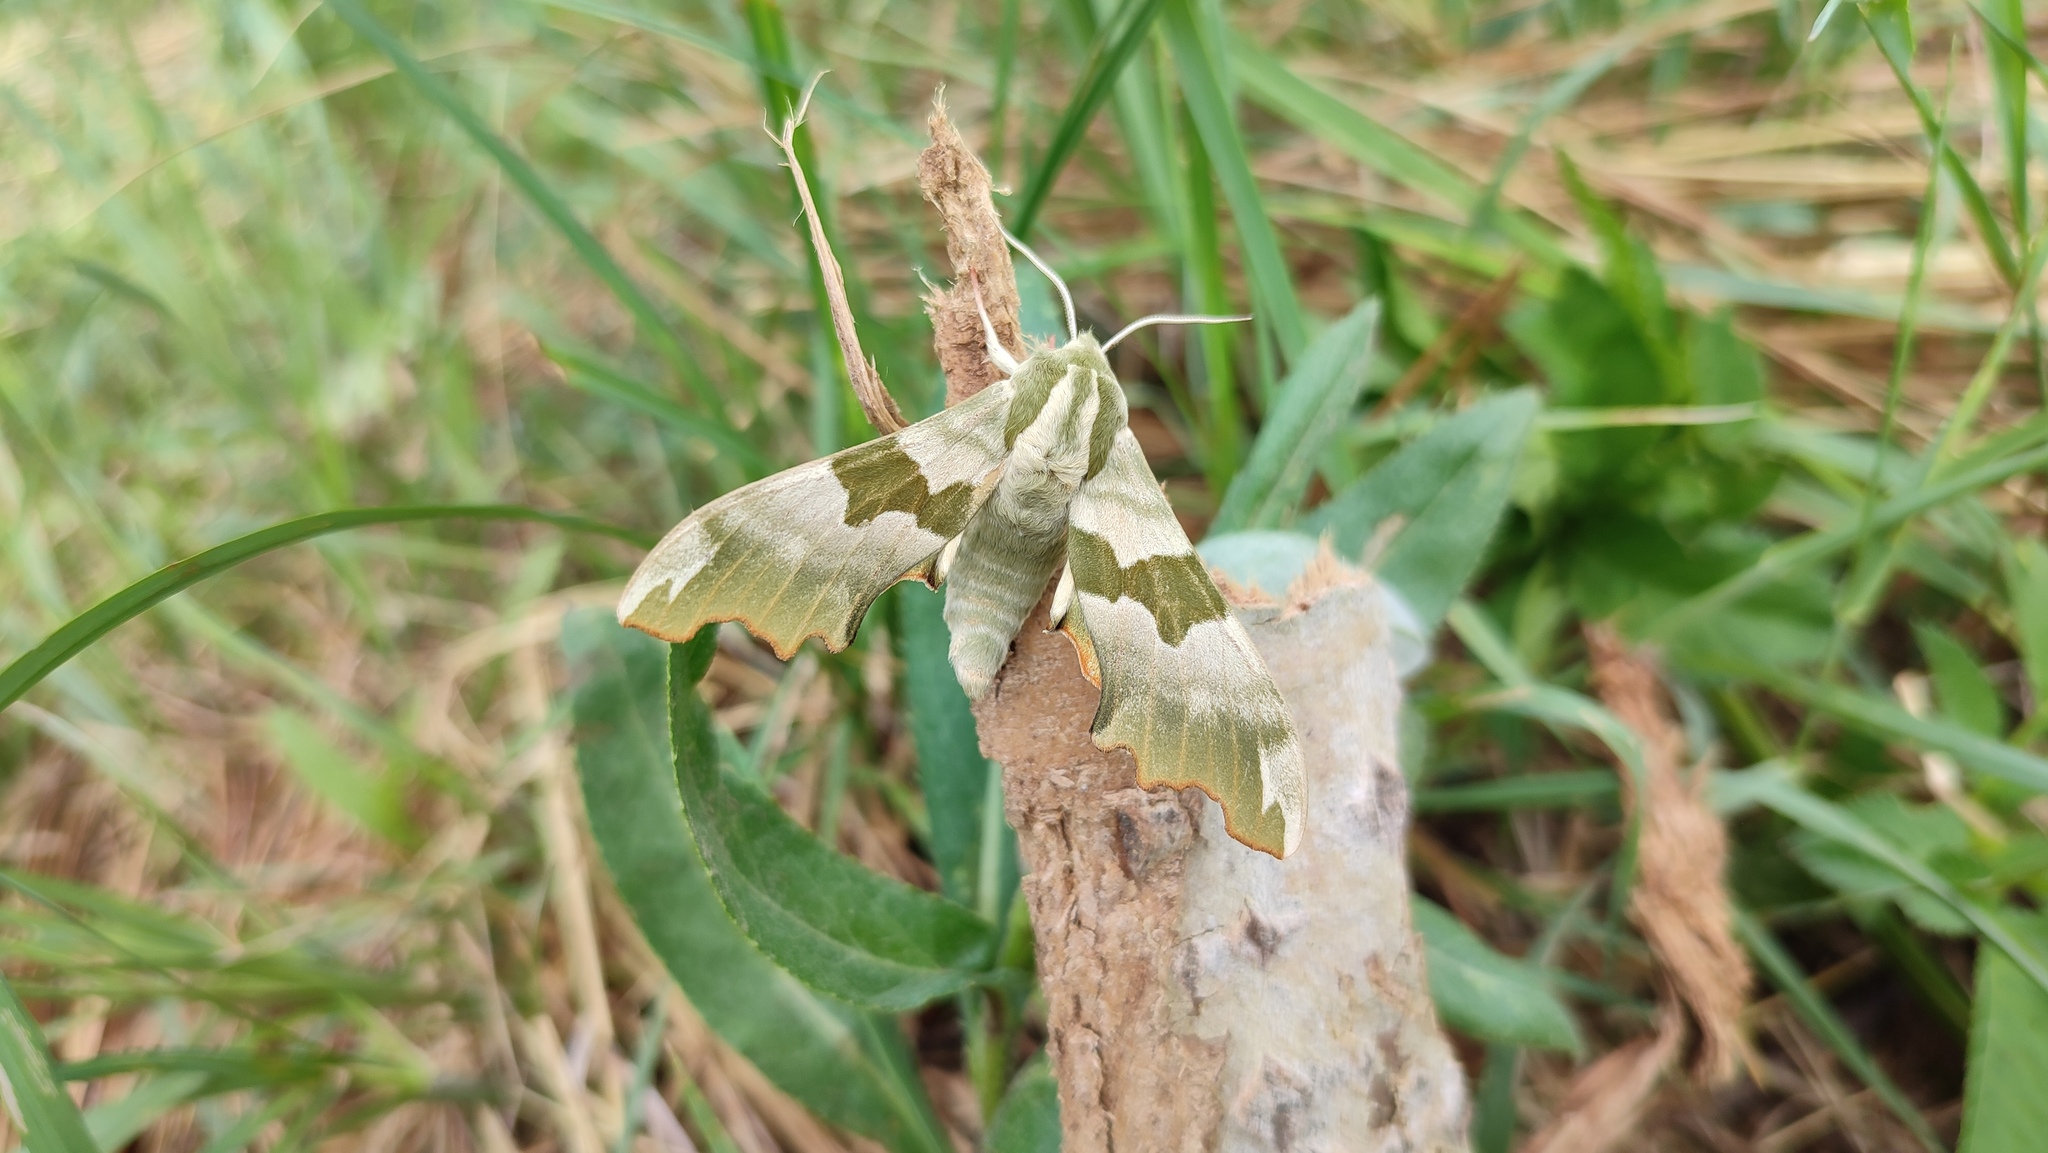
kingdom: Animalia
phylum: Arthropoda
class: Insecta
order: Lepidoptera
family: Sphingidae
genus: Mimas
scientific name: Mimas tiliae
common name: Lime hawk-moth
